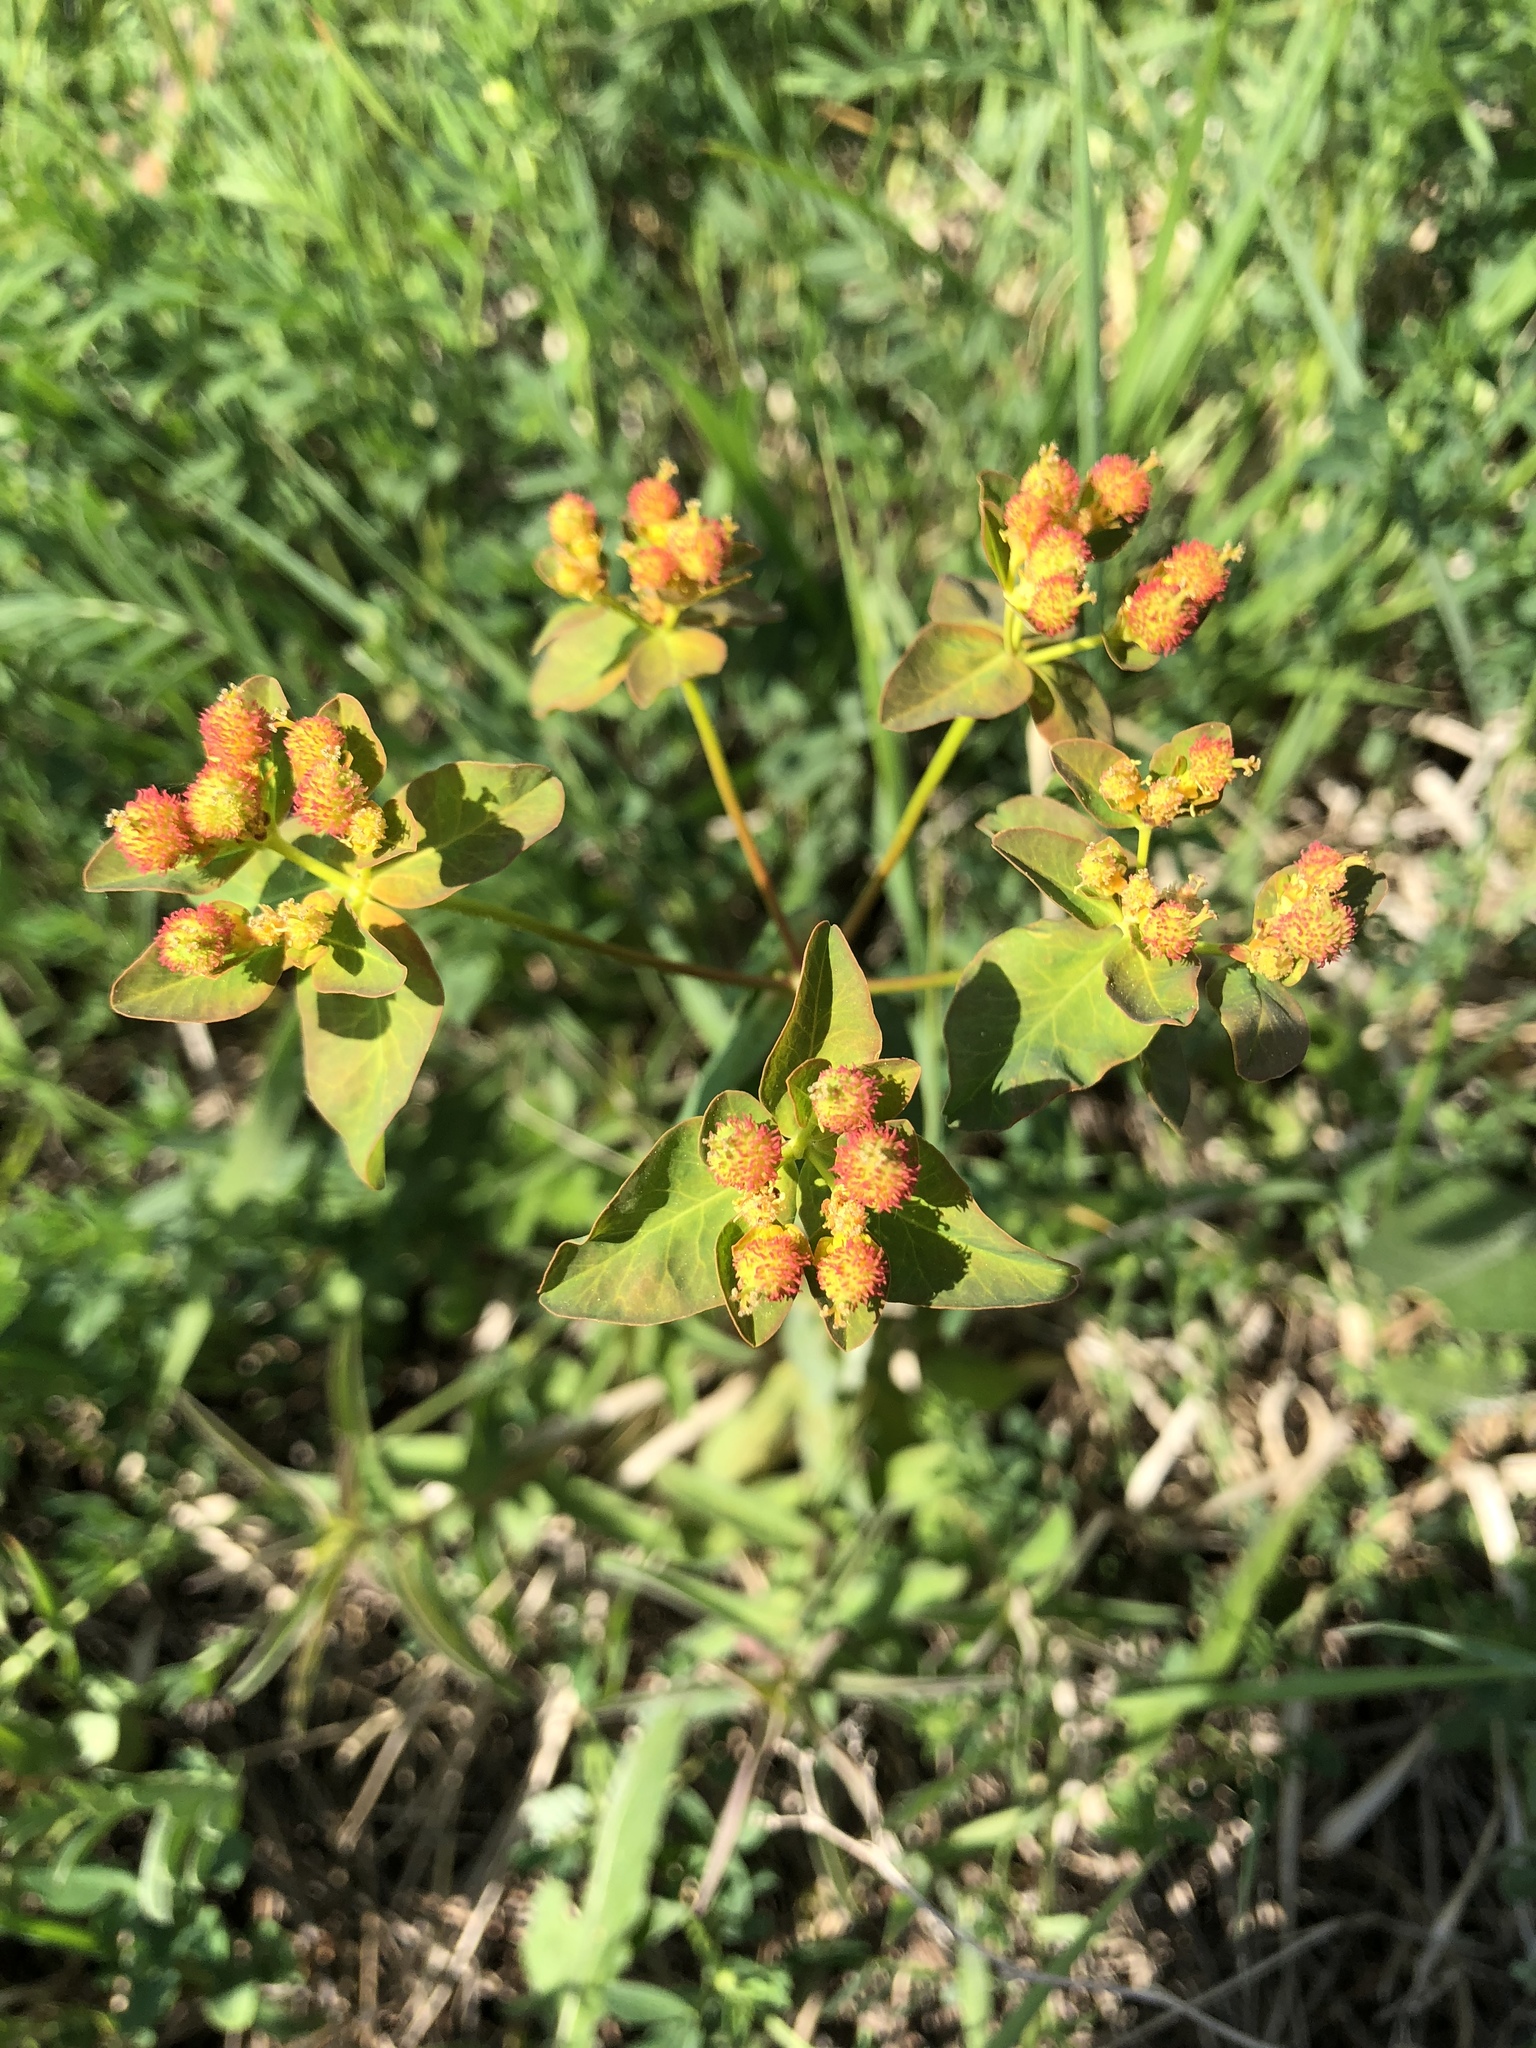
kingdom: Plantae
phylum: Tracheophyta
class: Magnoliopsida
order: Malpighiales
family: Euphorbiaceae
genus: Euphorbia
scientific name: Euphorbia epithymoides
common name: Cushion spurge
